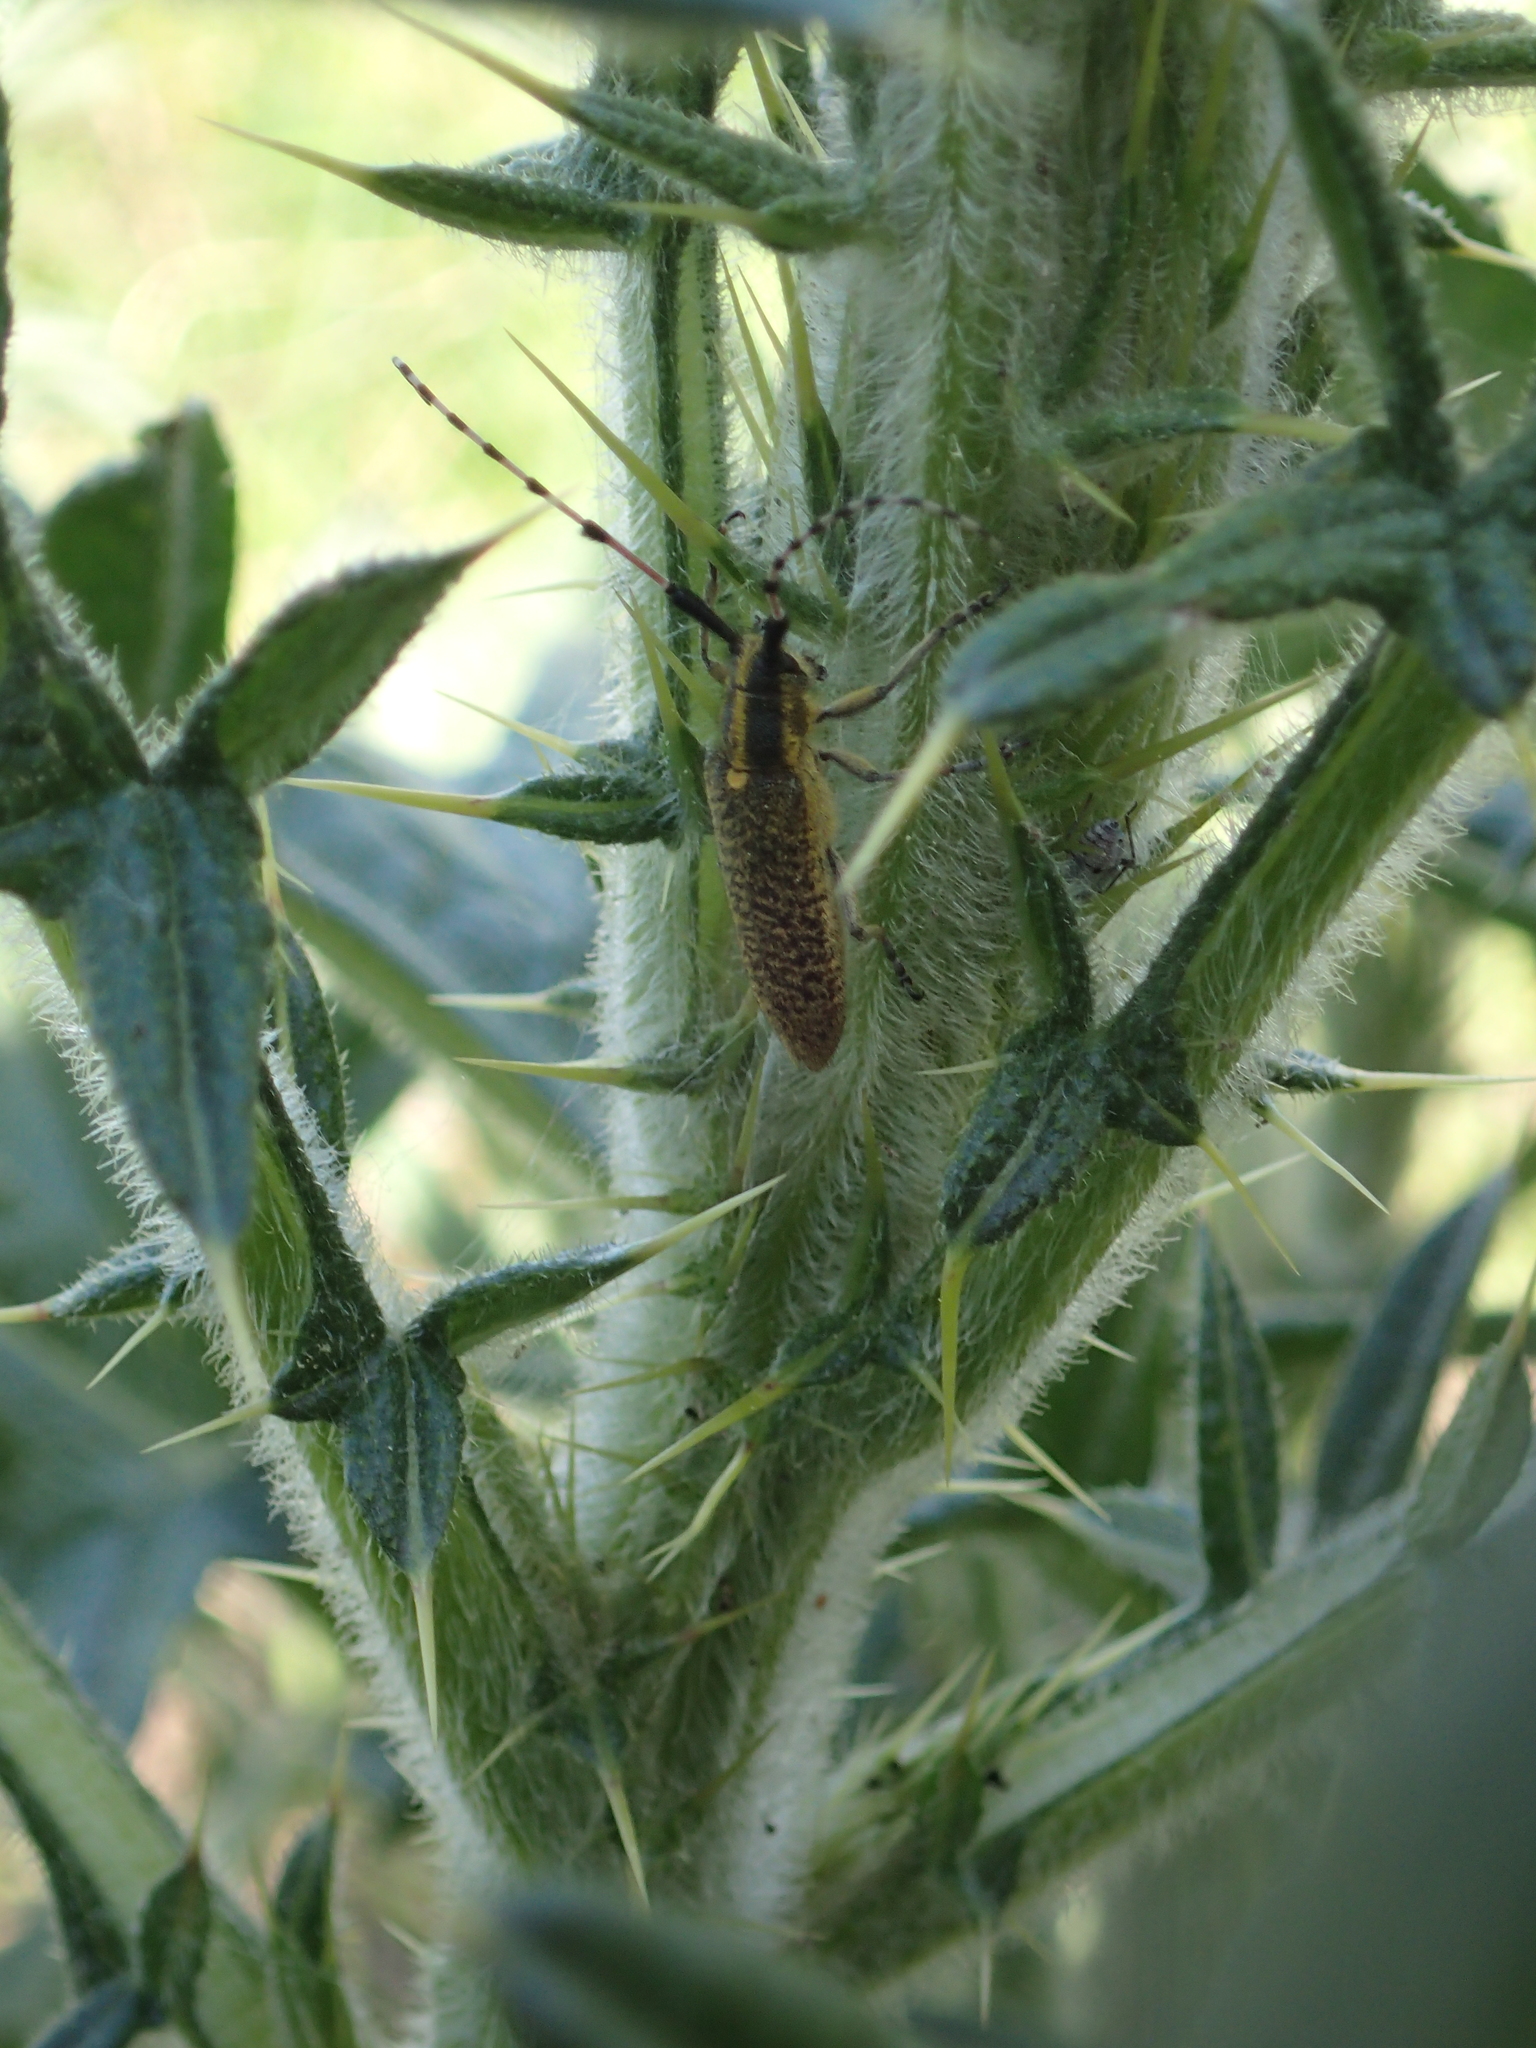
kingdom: Animalia
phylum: Arthropoda
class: Insecta
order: Coleoptera
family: Cerambycidae
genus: Agapanthia
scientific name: Agapanthia dahlii
